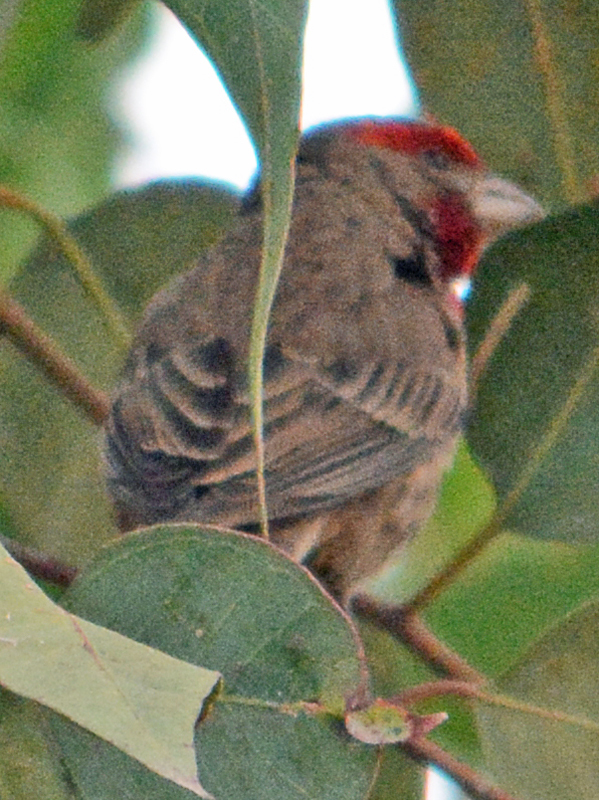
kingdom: Animalia
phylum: Chordata
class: Aves
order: Passeriformes
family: Fringillidae
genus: Haemorhous
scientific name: Haemorhous mexicanus
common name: House finch
